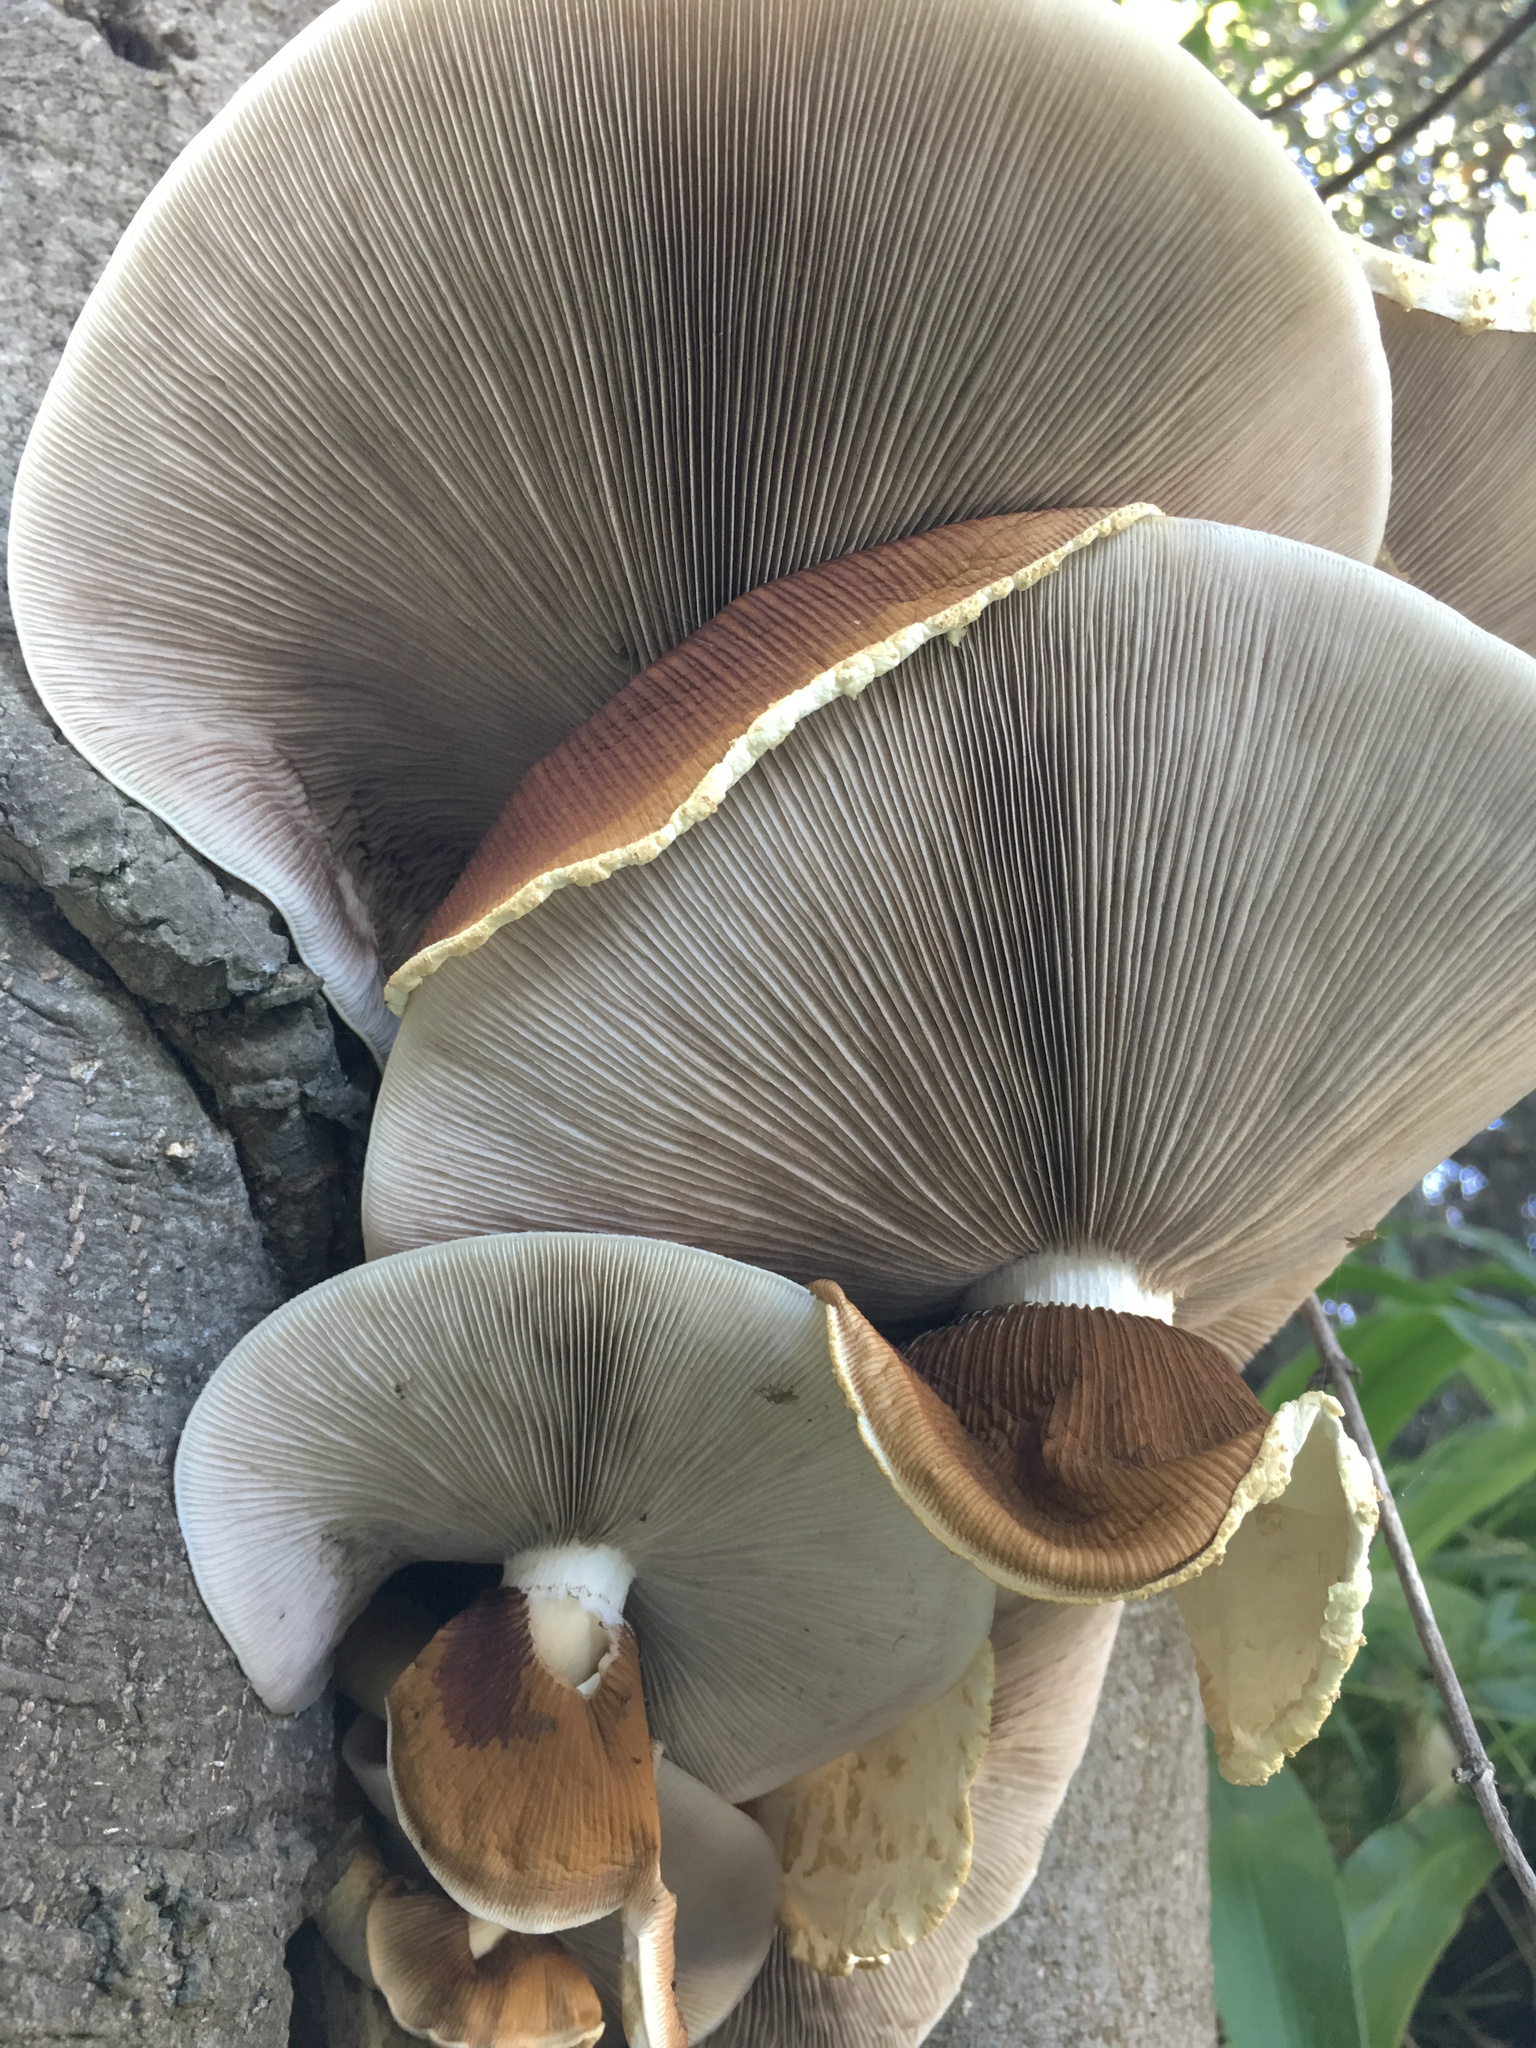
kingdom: Fungi
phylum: Basidiomycota
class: Agaricomycetes
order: Agaricales
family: Tubariaceae
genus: Cyclocybe
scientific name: Cyclocybe parasitica
